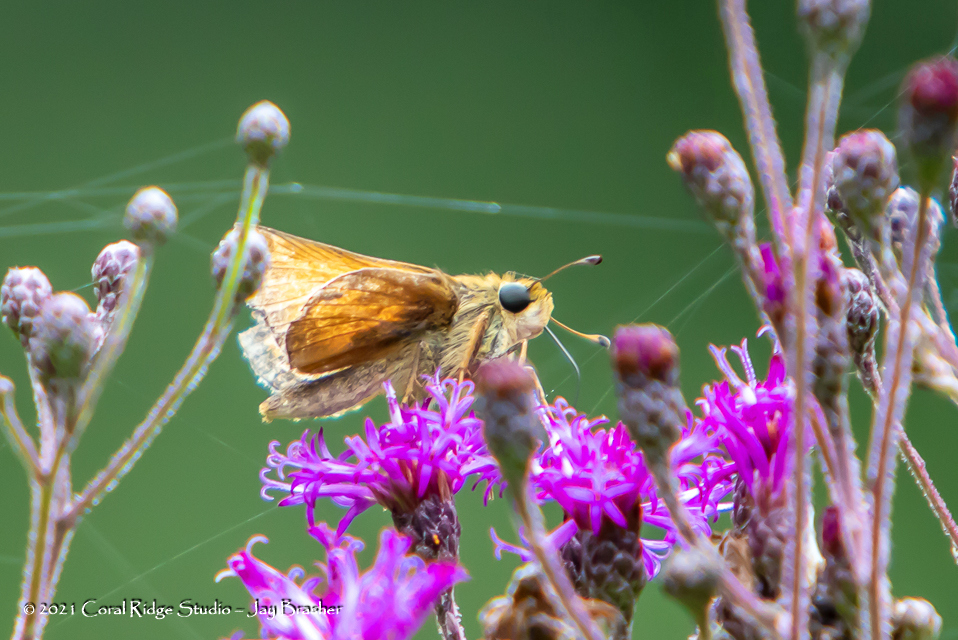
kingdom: Animalia
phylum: Arthropoda
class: Insecta
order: Lepidoptera
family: Hesperiidae
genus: Atalopedes
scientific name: Atalopedes
